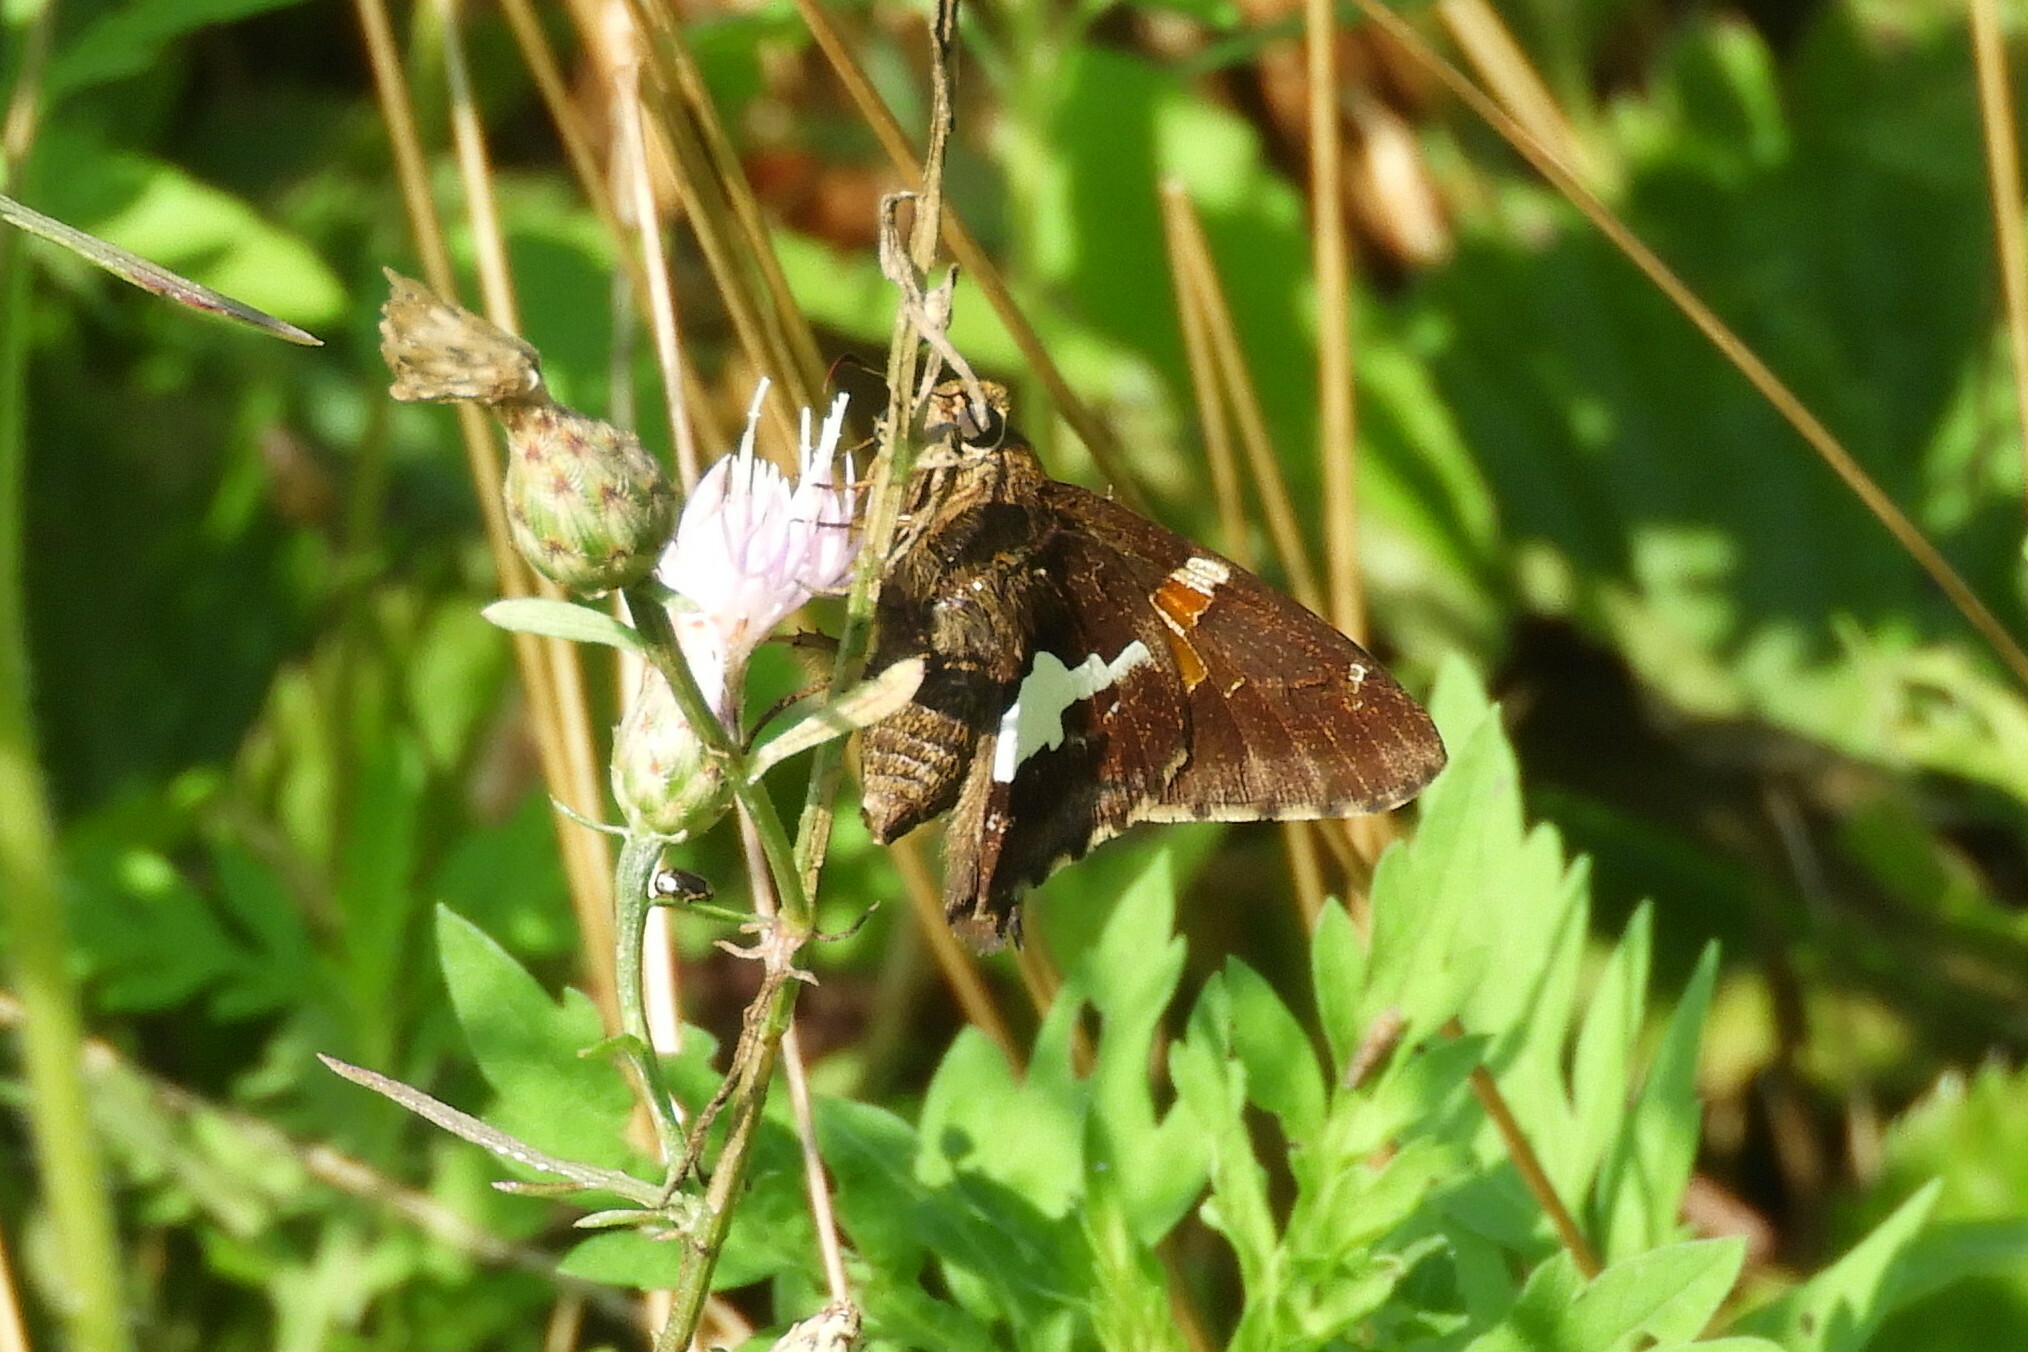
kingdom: Animalia
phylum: Arthropoda
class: Insecta
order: Lepidoptera
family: Hesperiidae
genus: Epargyreus
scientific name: Epargyreus clarus
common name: Silver-spotted skipper
